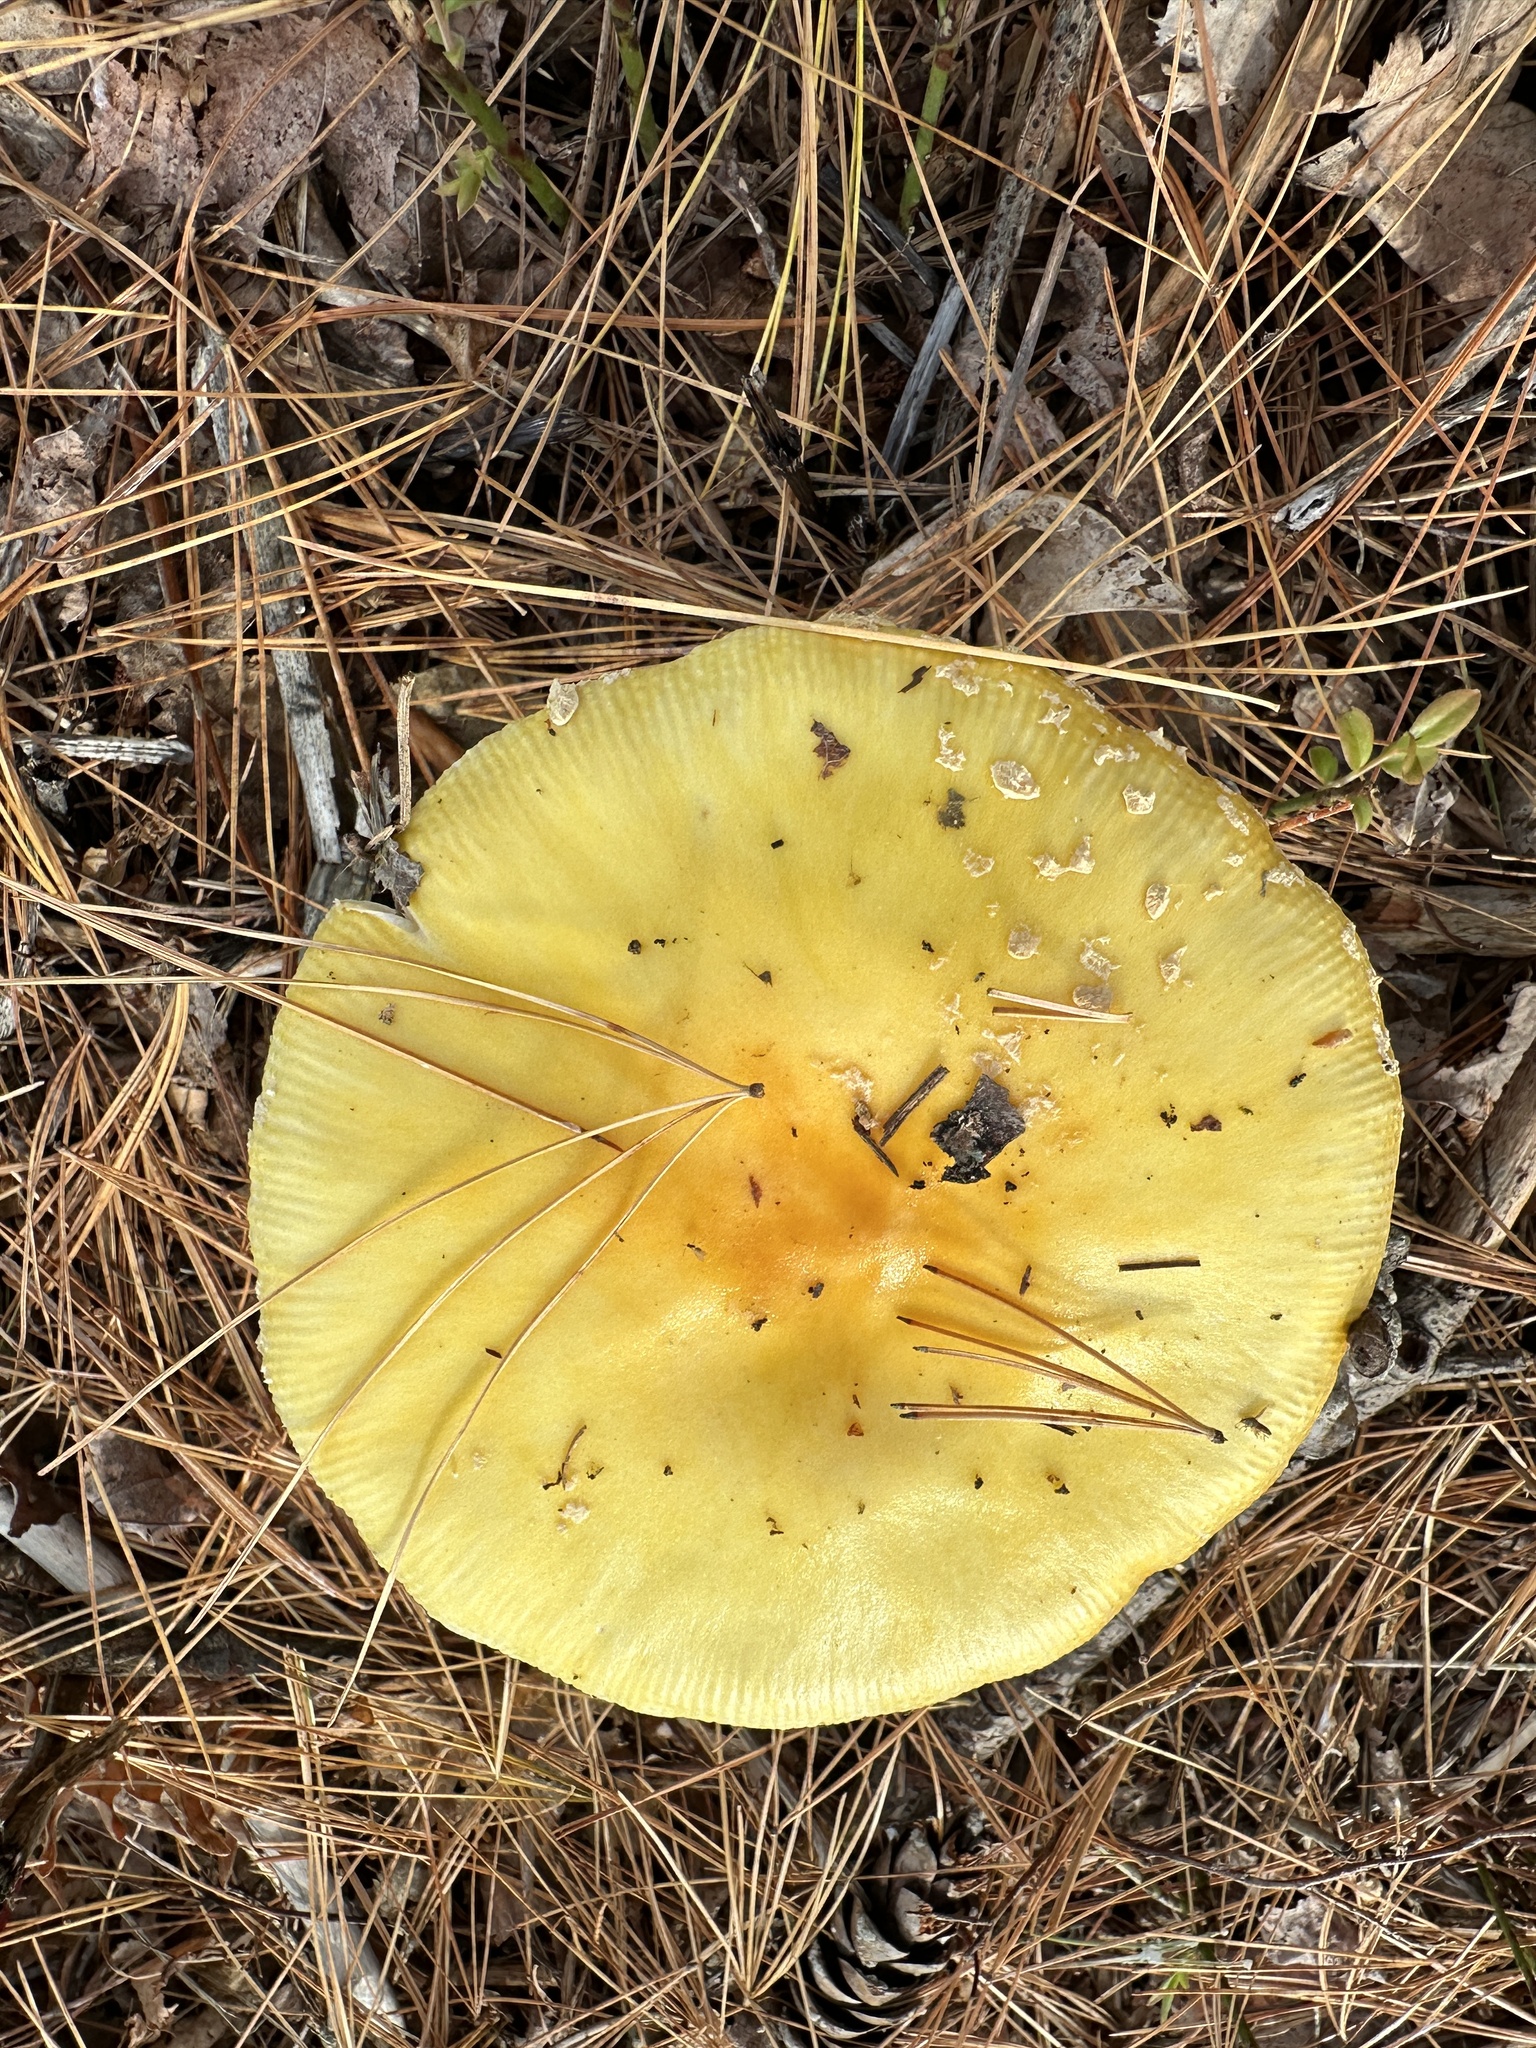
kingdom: Fungi
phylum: Basidiomycota
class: Agaricomycetes
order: Agaricales
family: Amanitaceae
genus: Amanita
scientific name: Amanita muscaria
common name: Fly agaric
